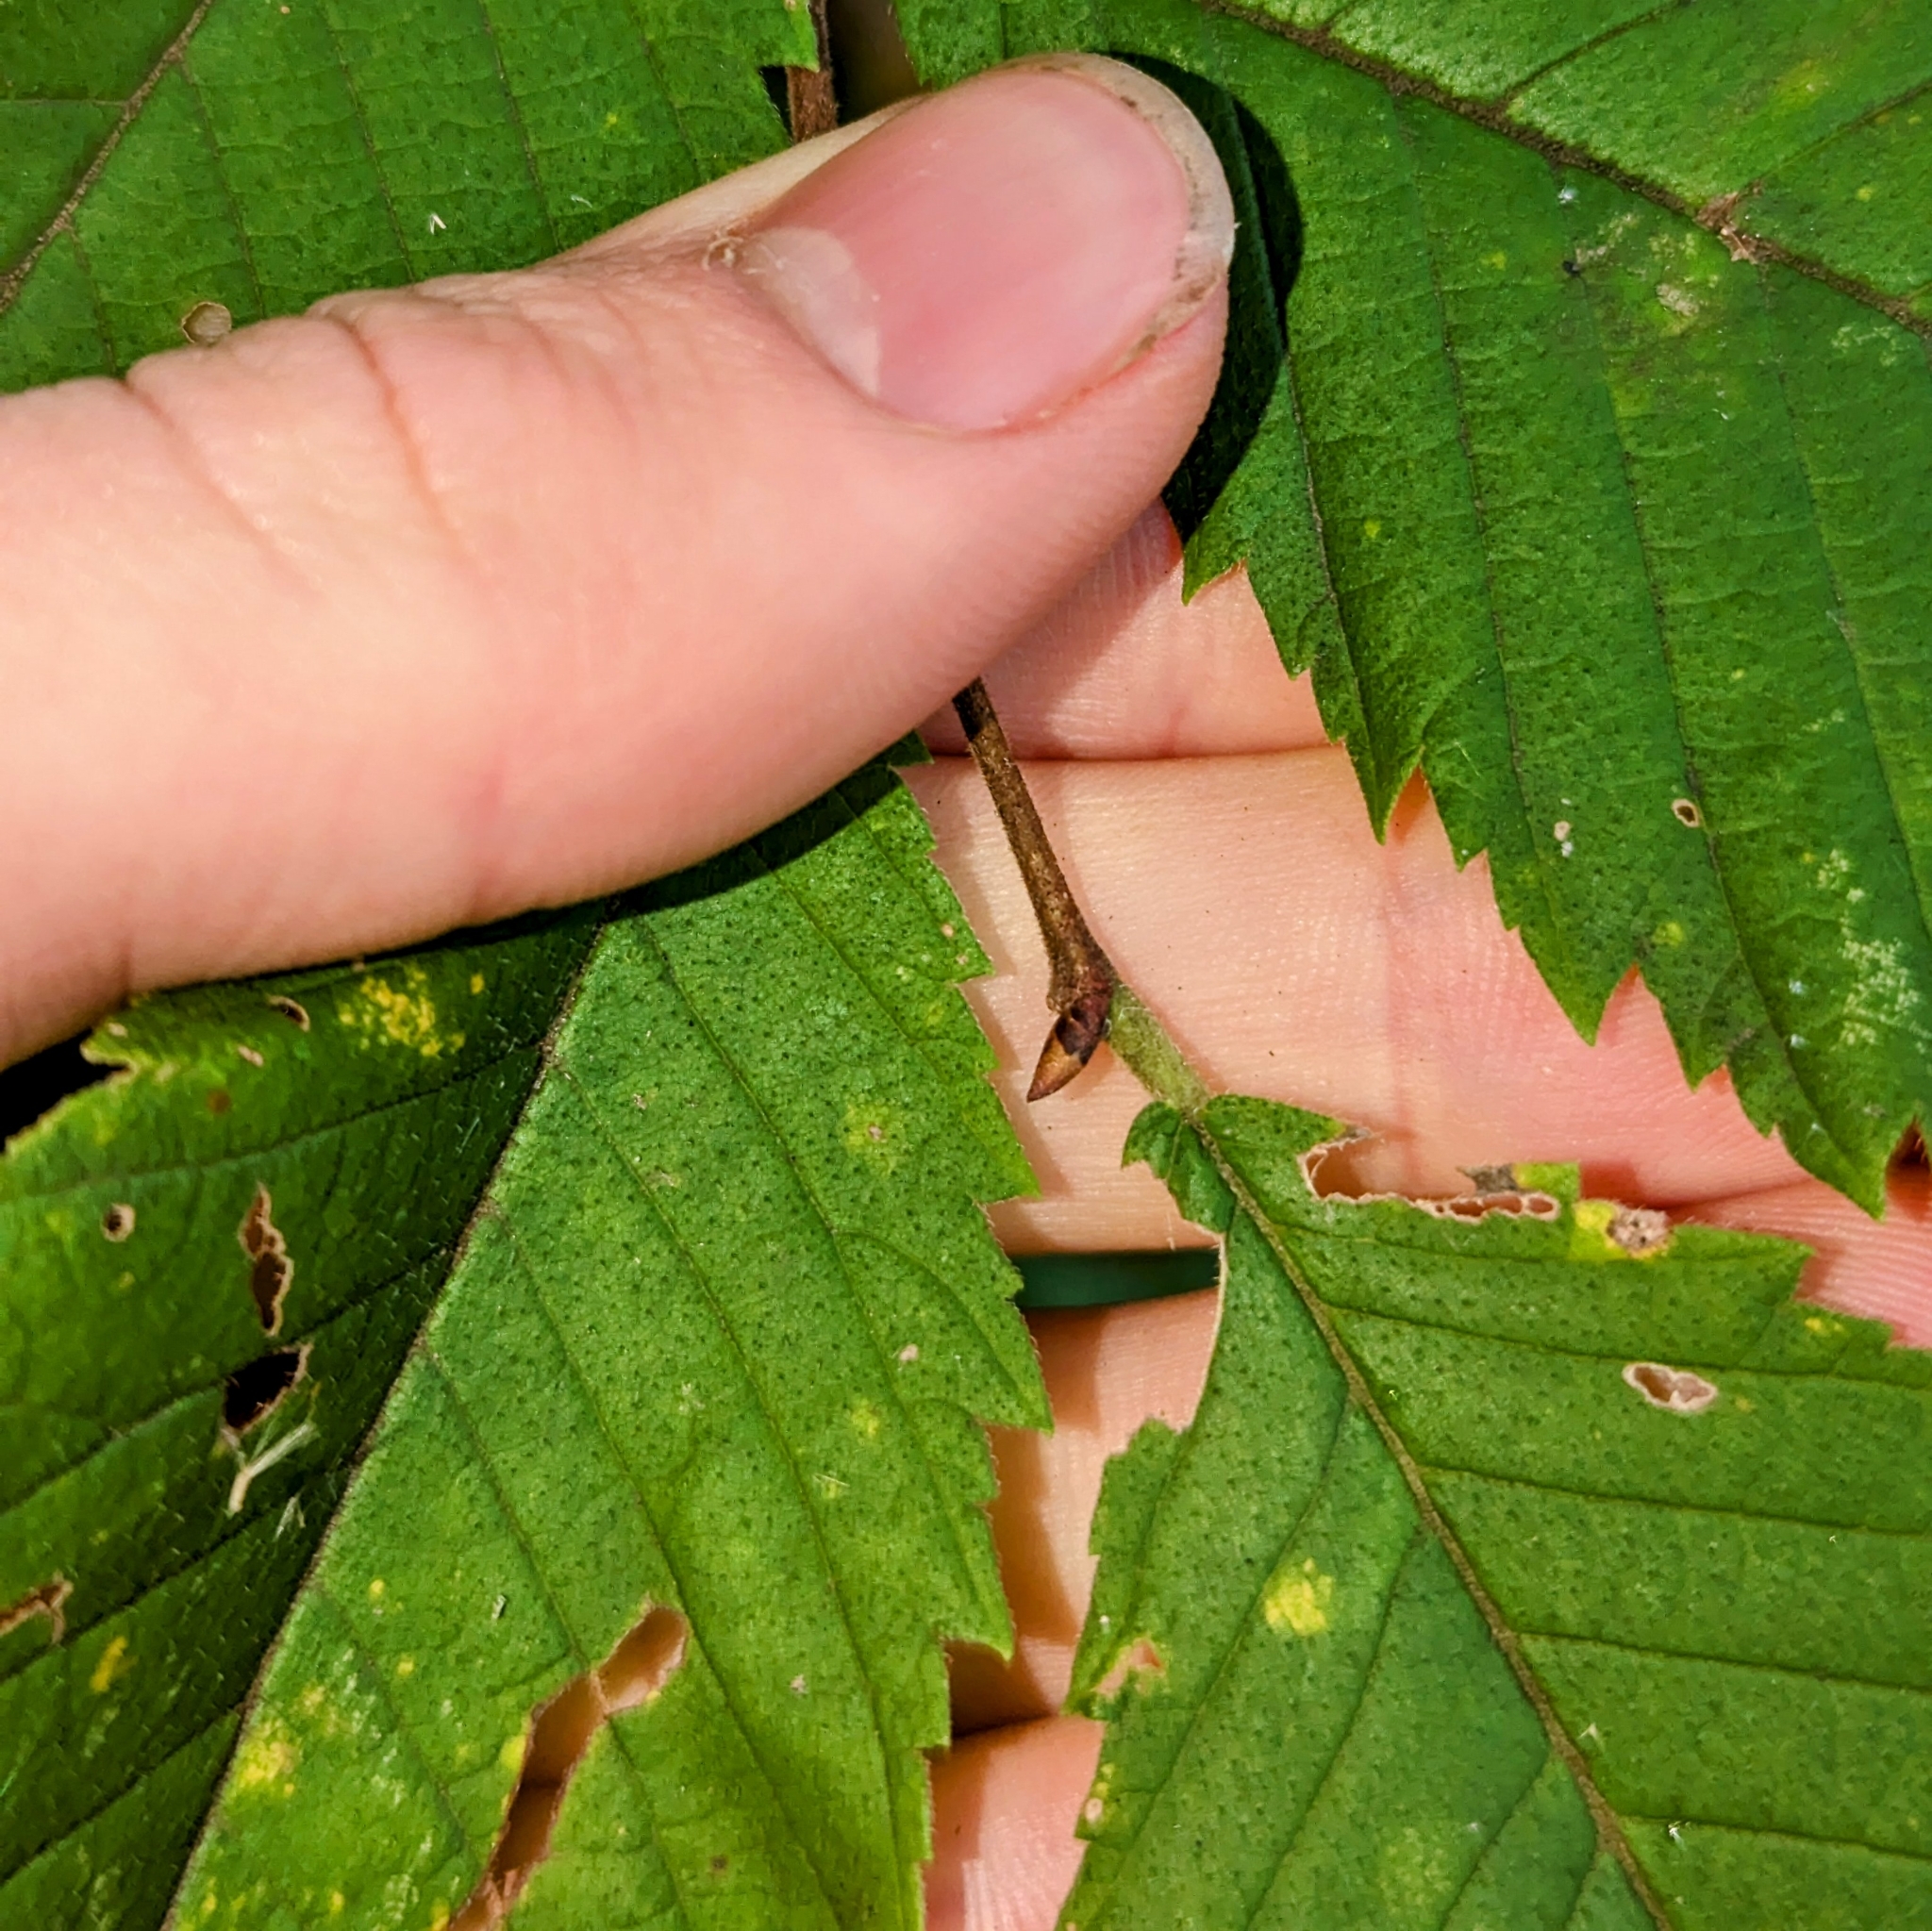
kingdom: Plantae
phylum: Tracheophyta
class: Magnoliopsida
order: Rosales
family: Ulmaceae
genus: Ulmus
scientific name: Ulmus americana
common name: American elm
